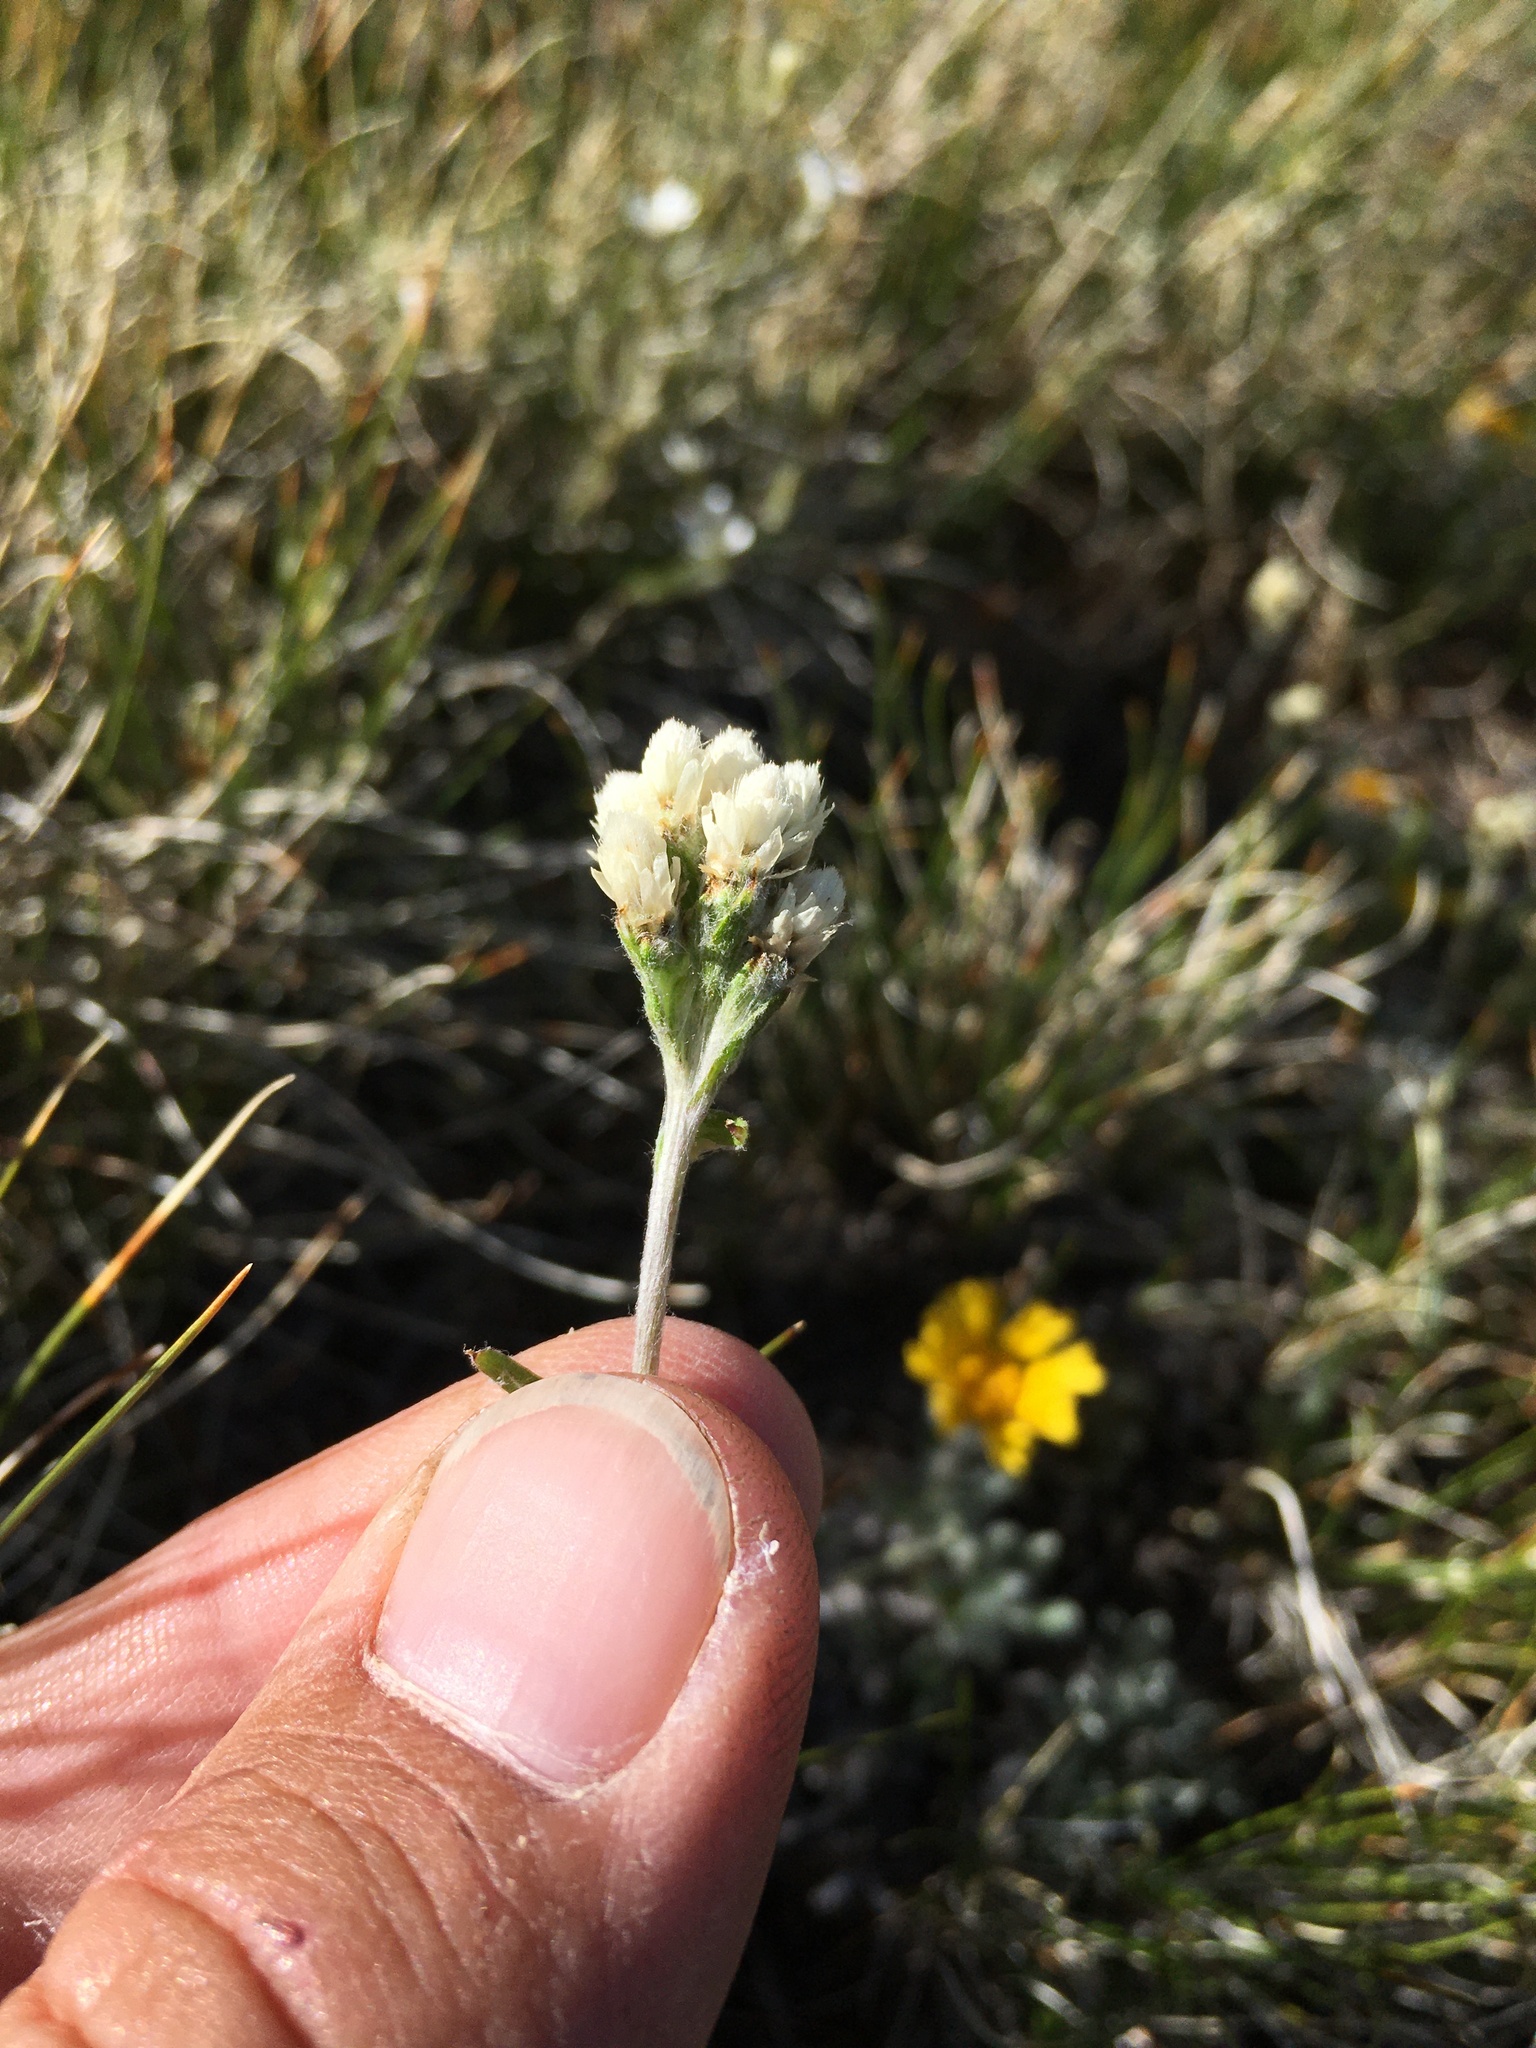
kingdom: Plantae
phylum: Tracheophyta
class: Magnoliopsida
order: Asterales
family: Asteraceae
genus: Antennaria
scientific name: Antennaria rosea
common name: Rosy pussytoes
